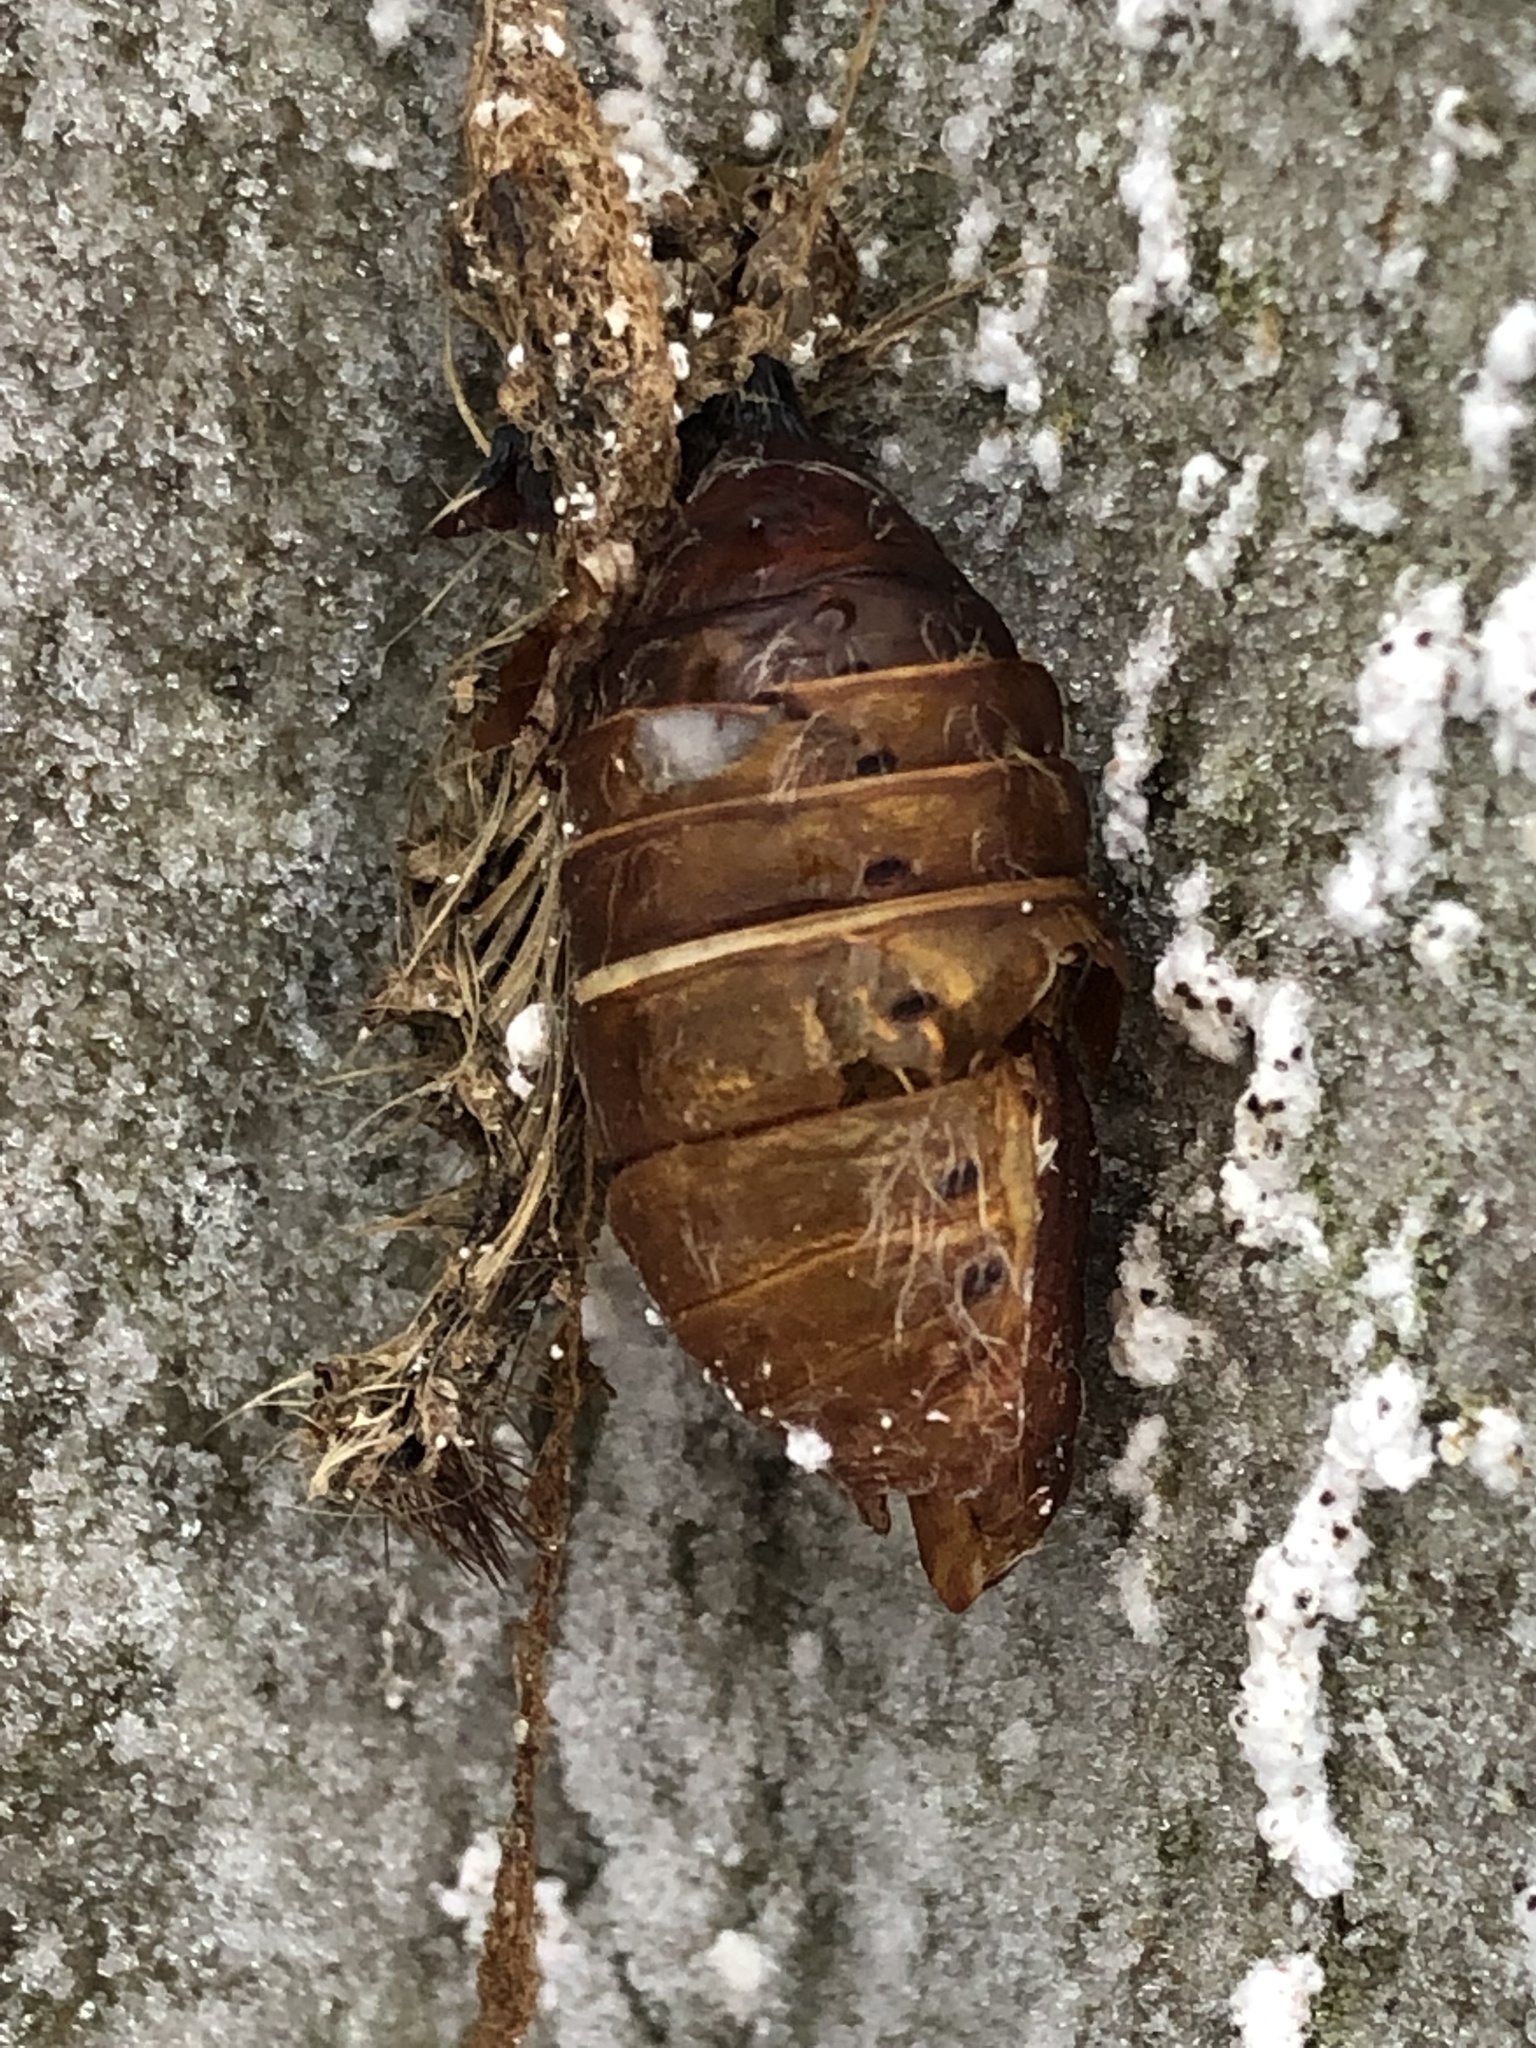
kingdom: Animalia
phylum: Arthropoda
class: Insecta
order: Lepidoptera
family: Erebidae
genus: Lymantria
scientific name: Lymantria dispar
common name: Gypsy moth
